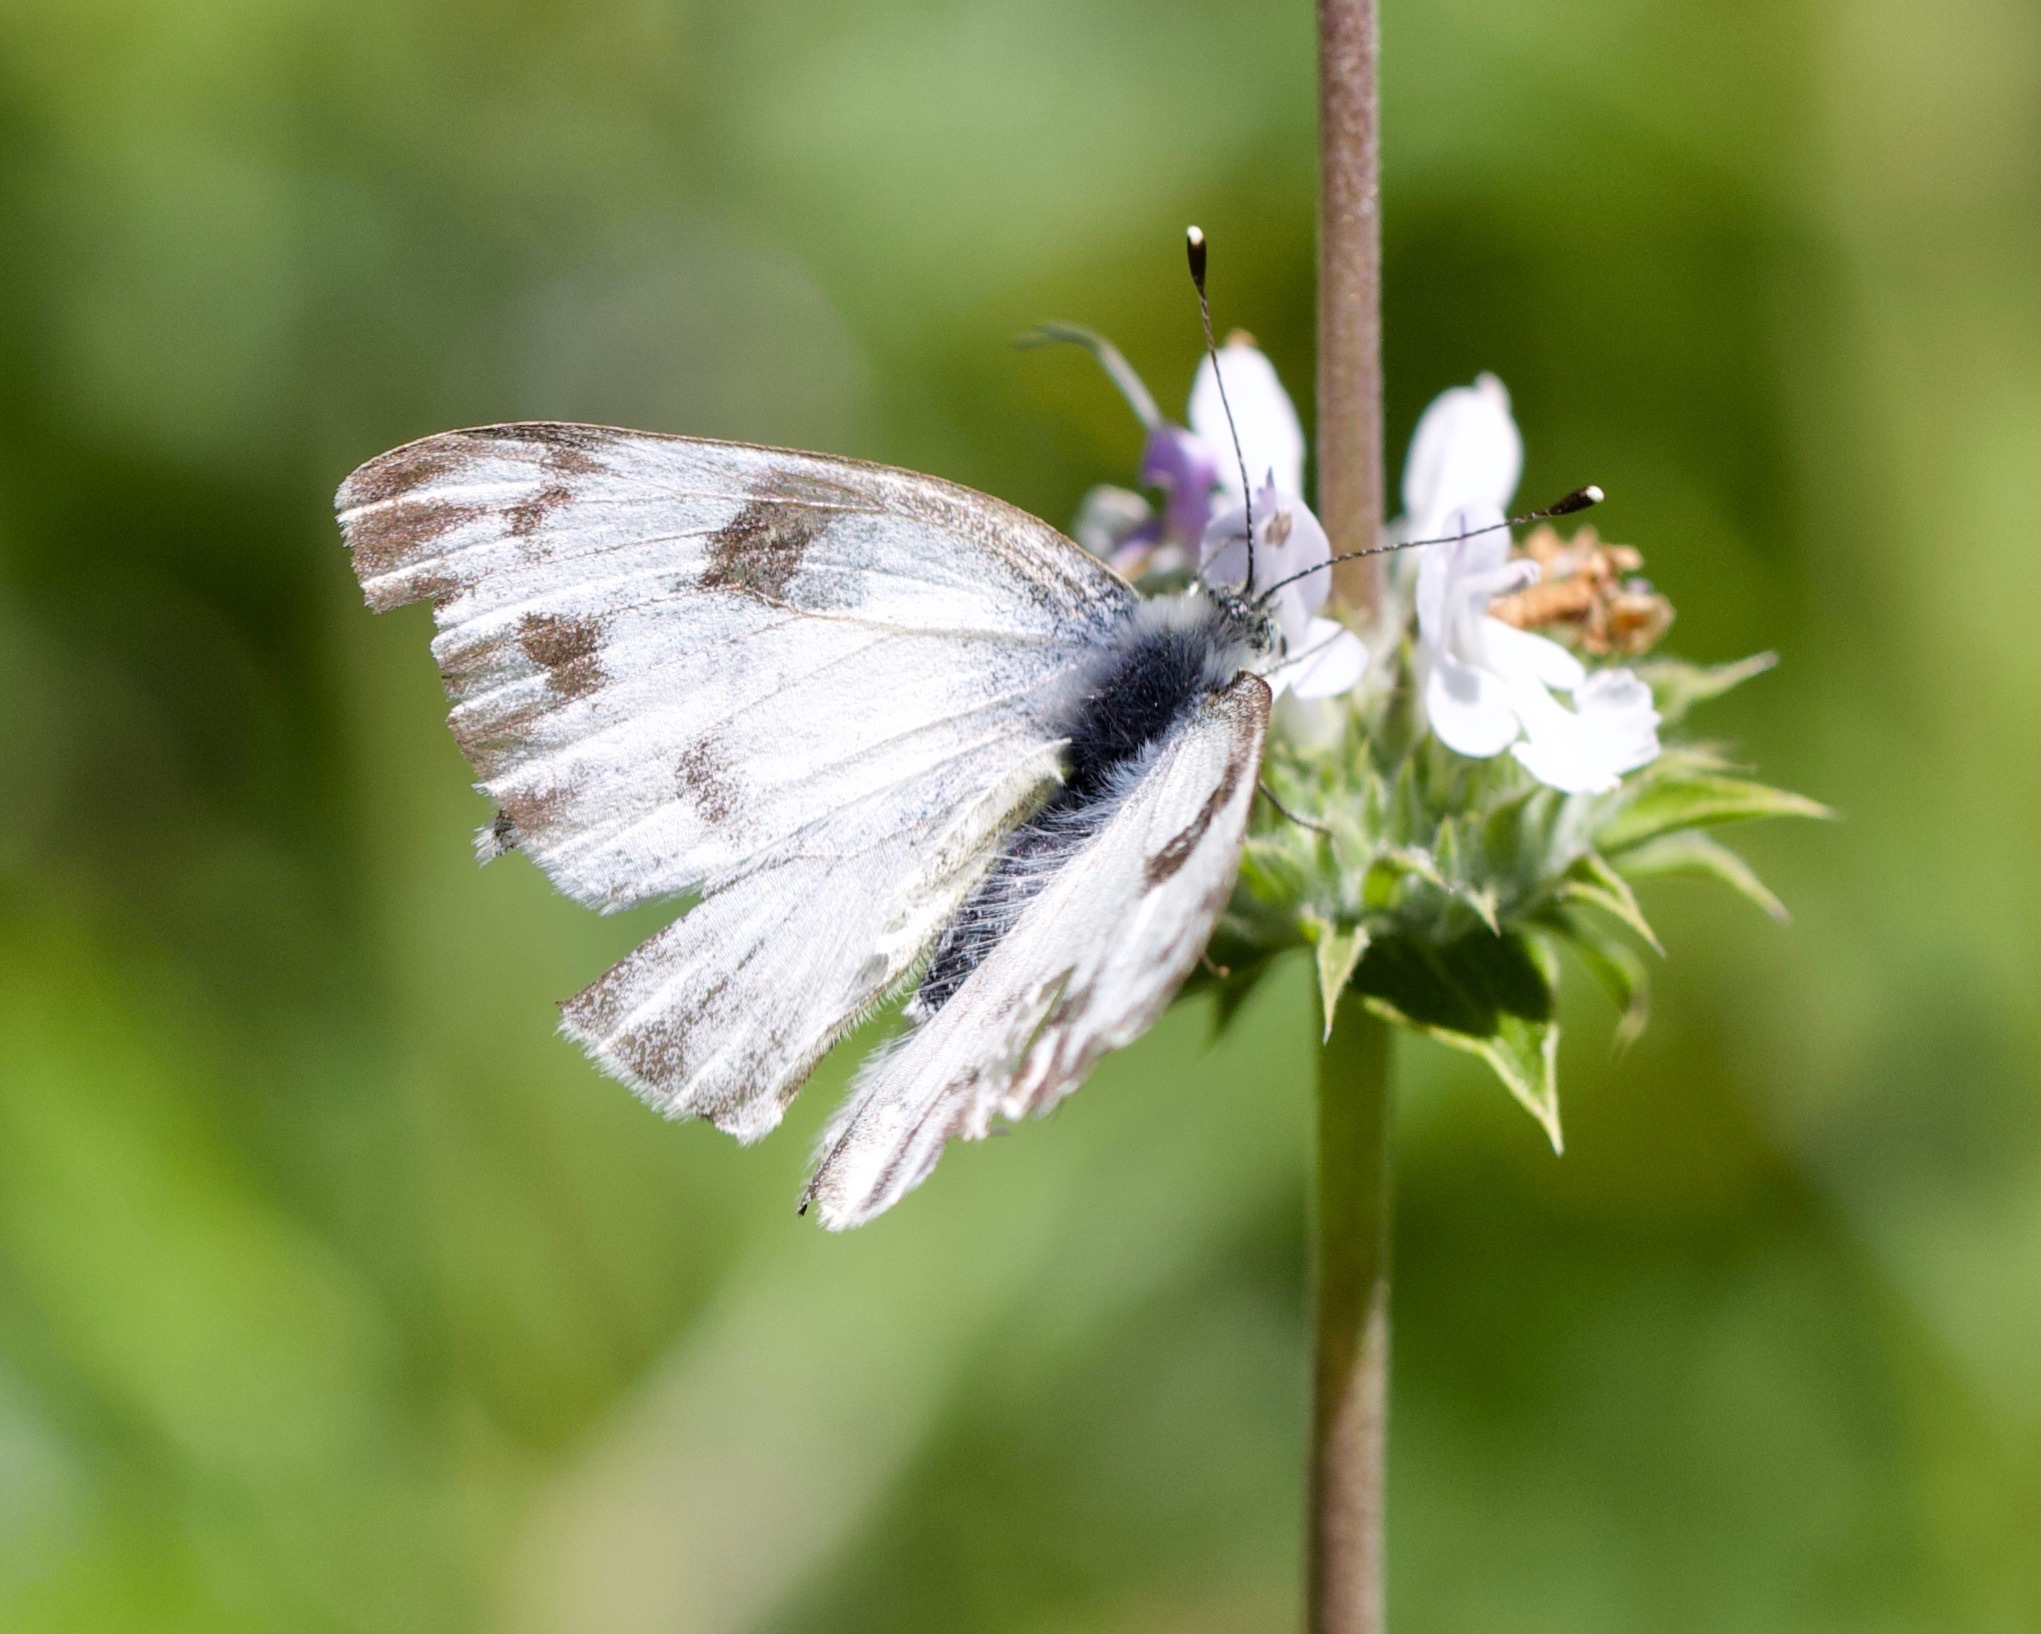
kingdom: Animalia
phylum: Arthropoda
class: Insecta
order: Lepidoptera
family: Pieridae
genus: Pontia
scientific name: Pontia protodice
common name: Checkered white
